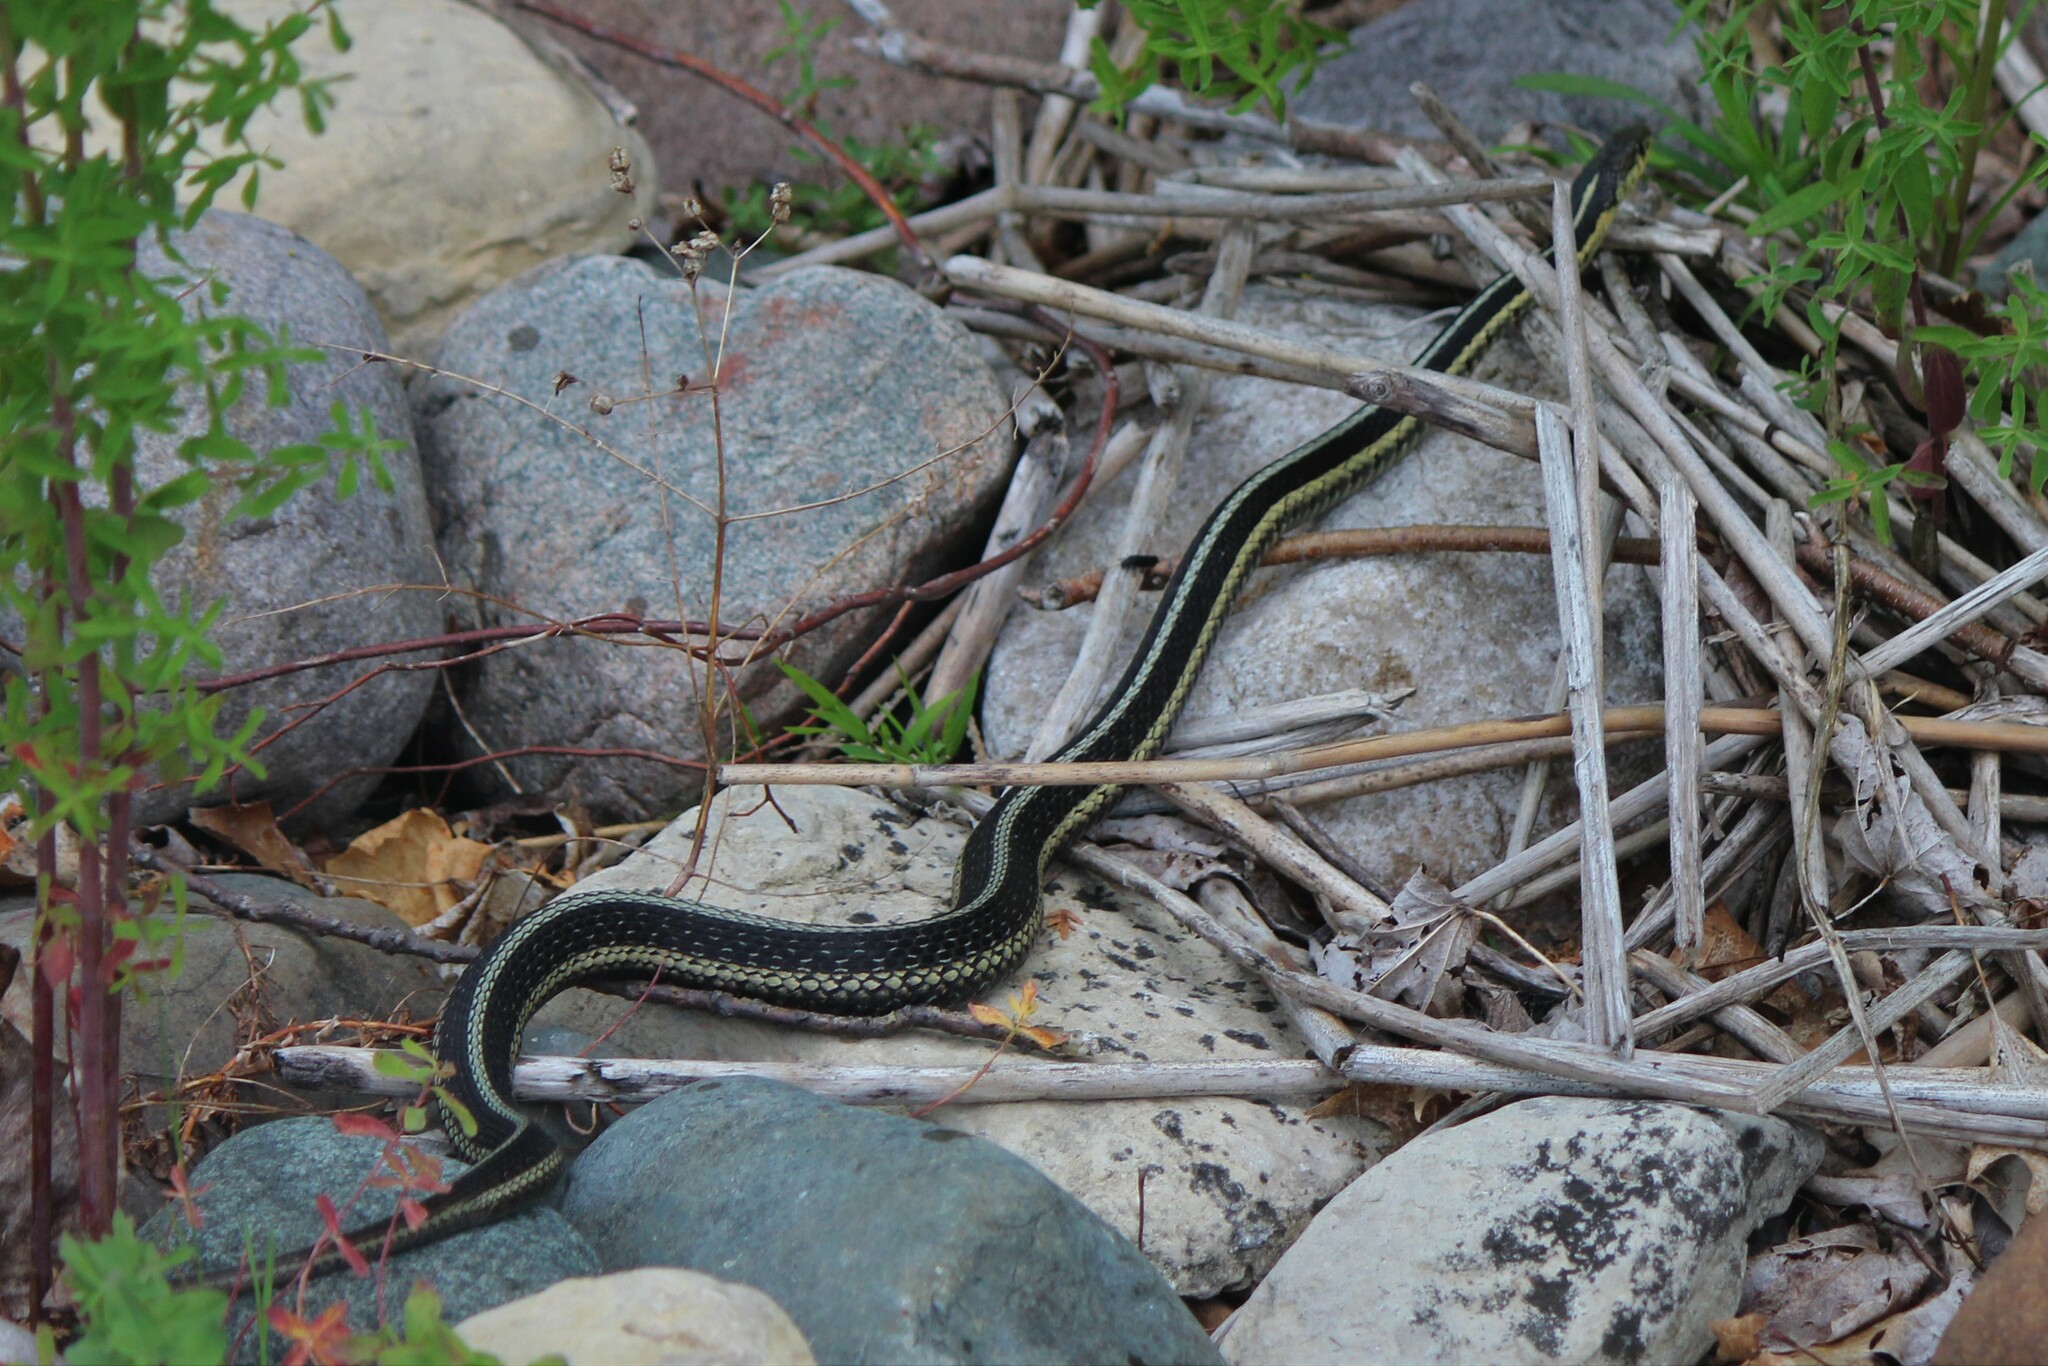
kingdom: Animalia
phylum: Chordata
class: Squamata
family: Colubridae
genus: Thamnophis
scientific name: Thamnophis sirtalis
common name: Common garter snake
